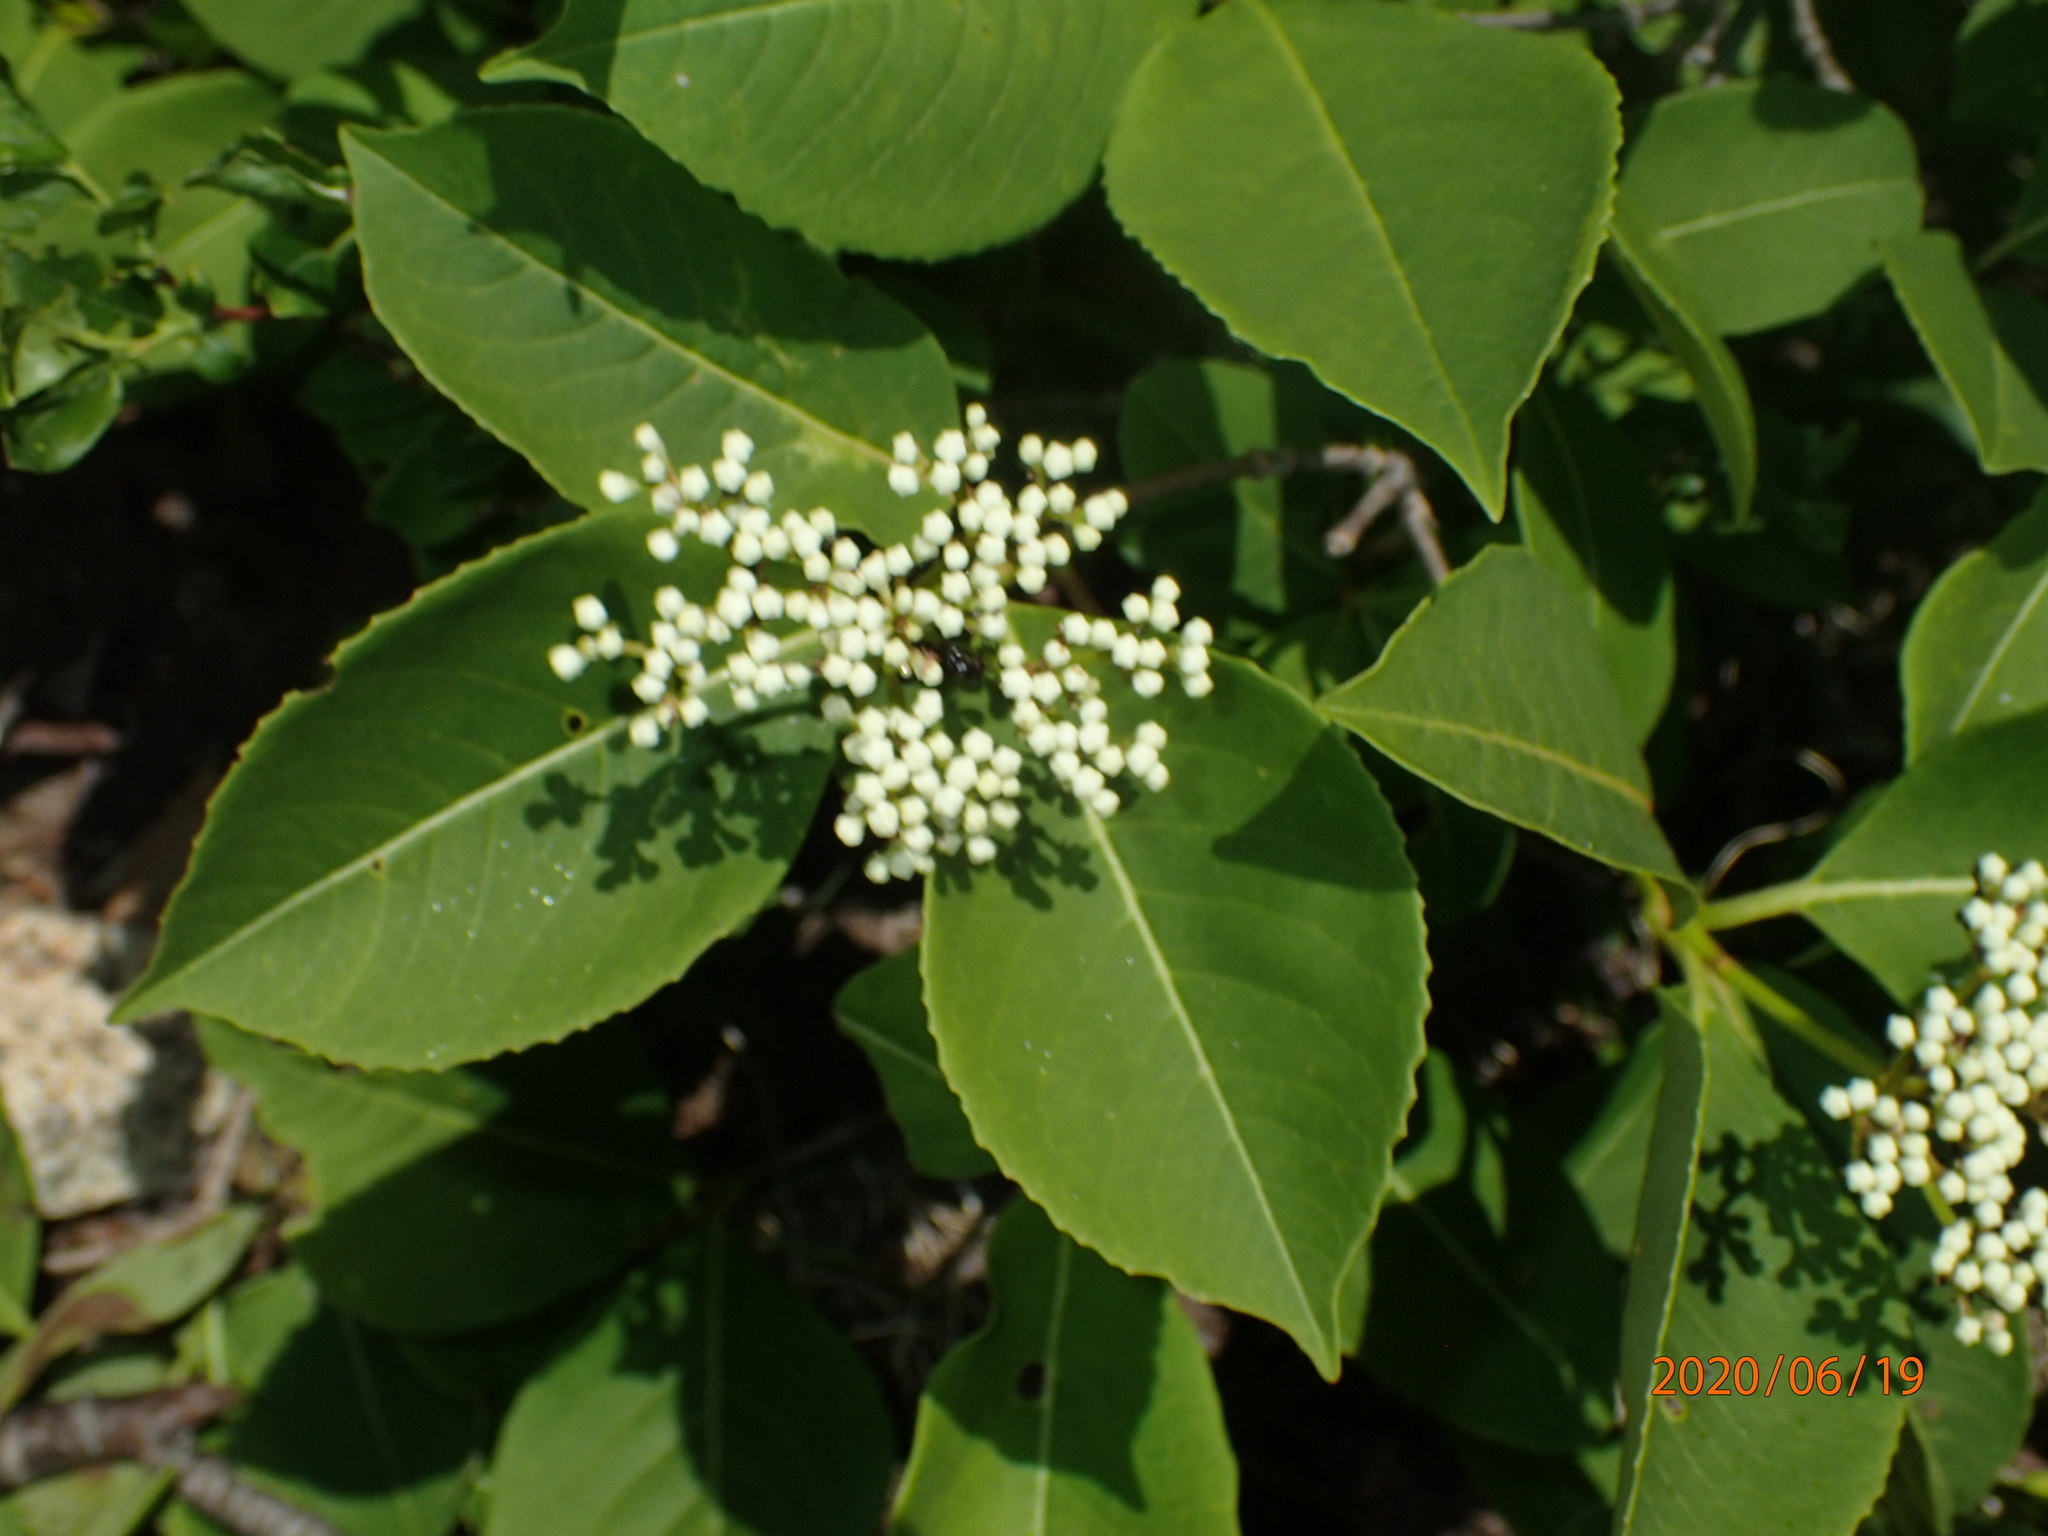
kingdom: Plantae
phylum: Tracheophyta
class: Magnoliopsida
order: Dipsacales
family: Viburnaceae
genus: Viburnum
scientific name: Viburnum cassinoides
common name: Swamp haw
